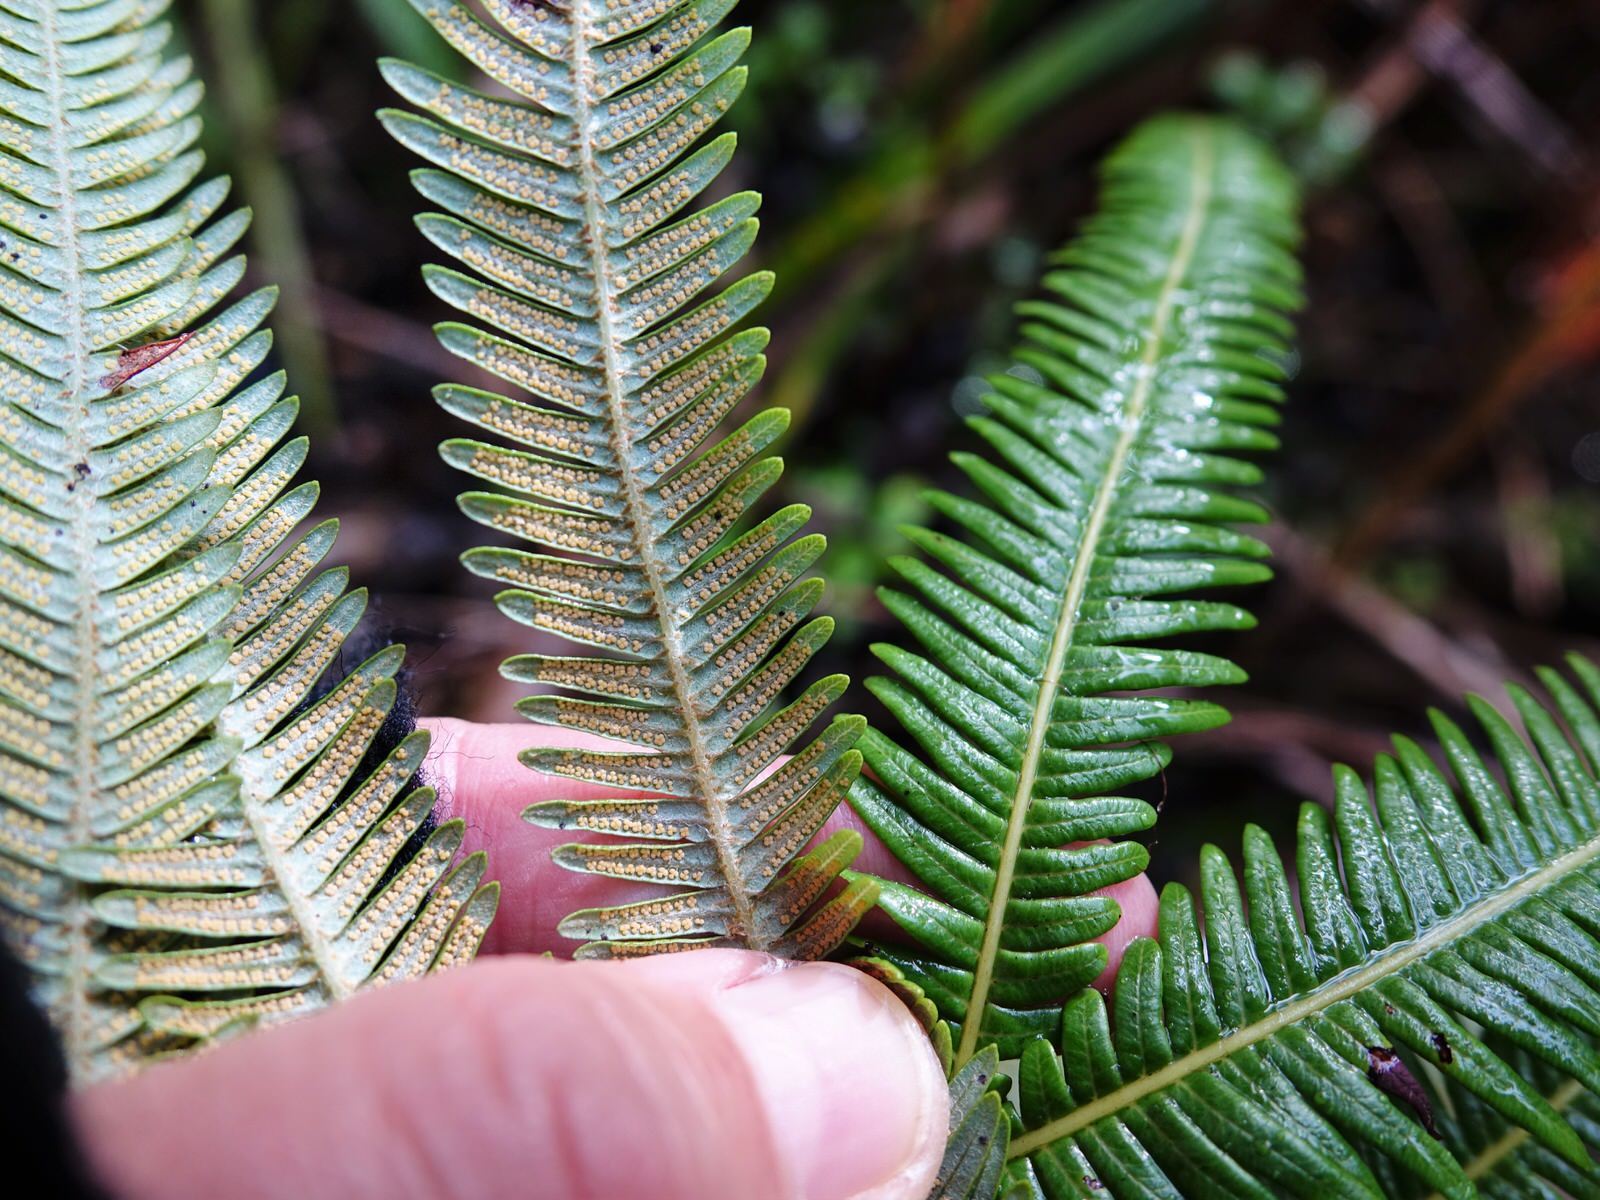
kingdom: Plantae
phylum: Tracheophyta
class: Polypodiopsida
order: Gleicheniales
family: Gleicheniaceae
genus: Sticherus
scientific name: Sticherus cunninghamii
